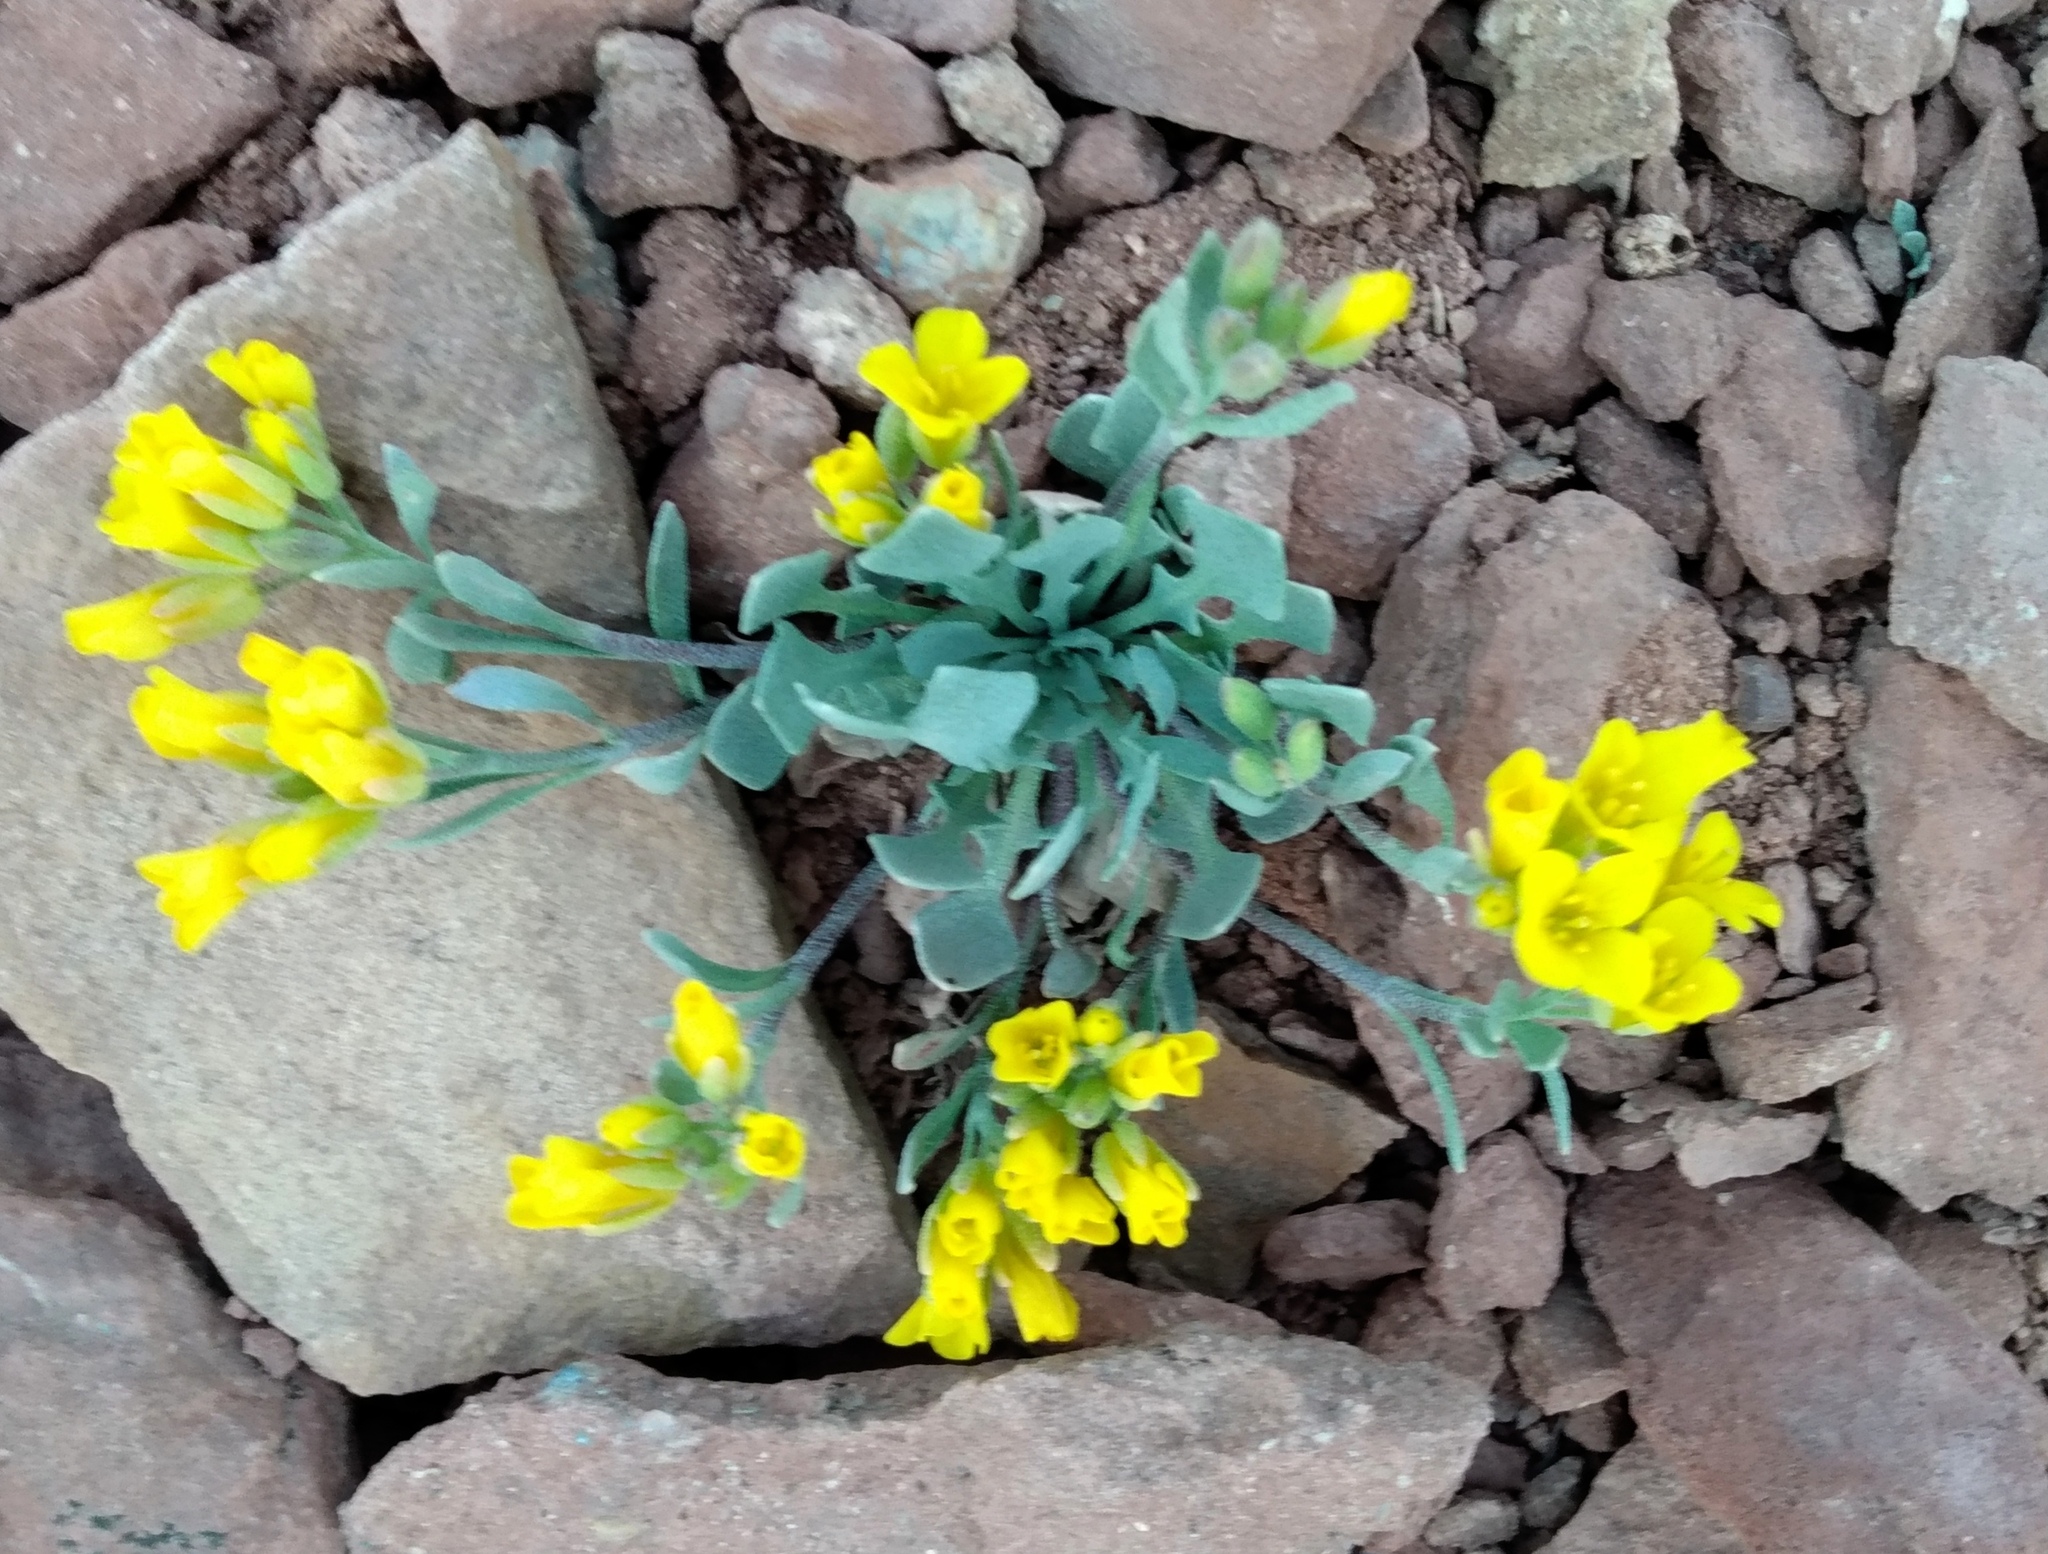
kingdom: Plantae
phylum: Tracheophyta
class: Magnoliopsida
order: Brassicales
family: Brassicaceae
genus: Physaria
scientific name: Physaria alpina
